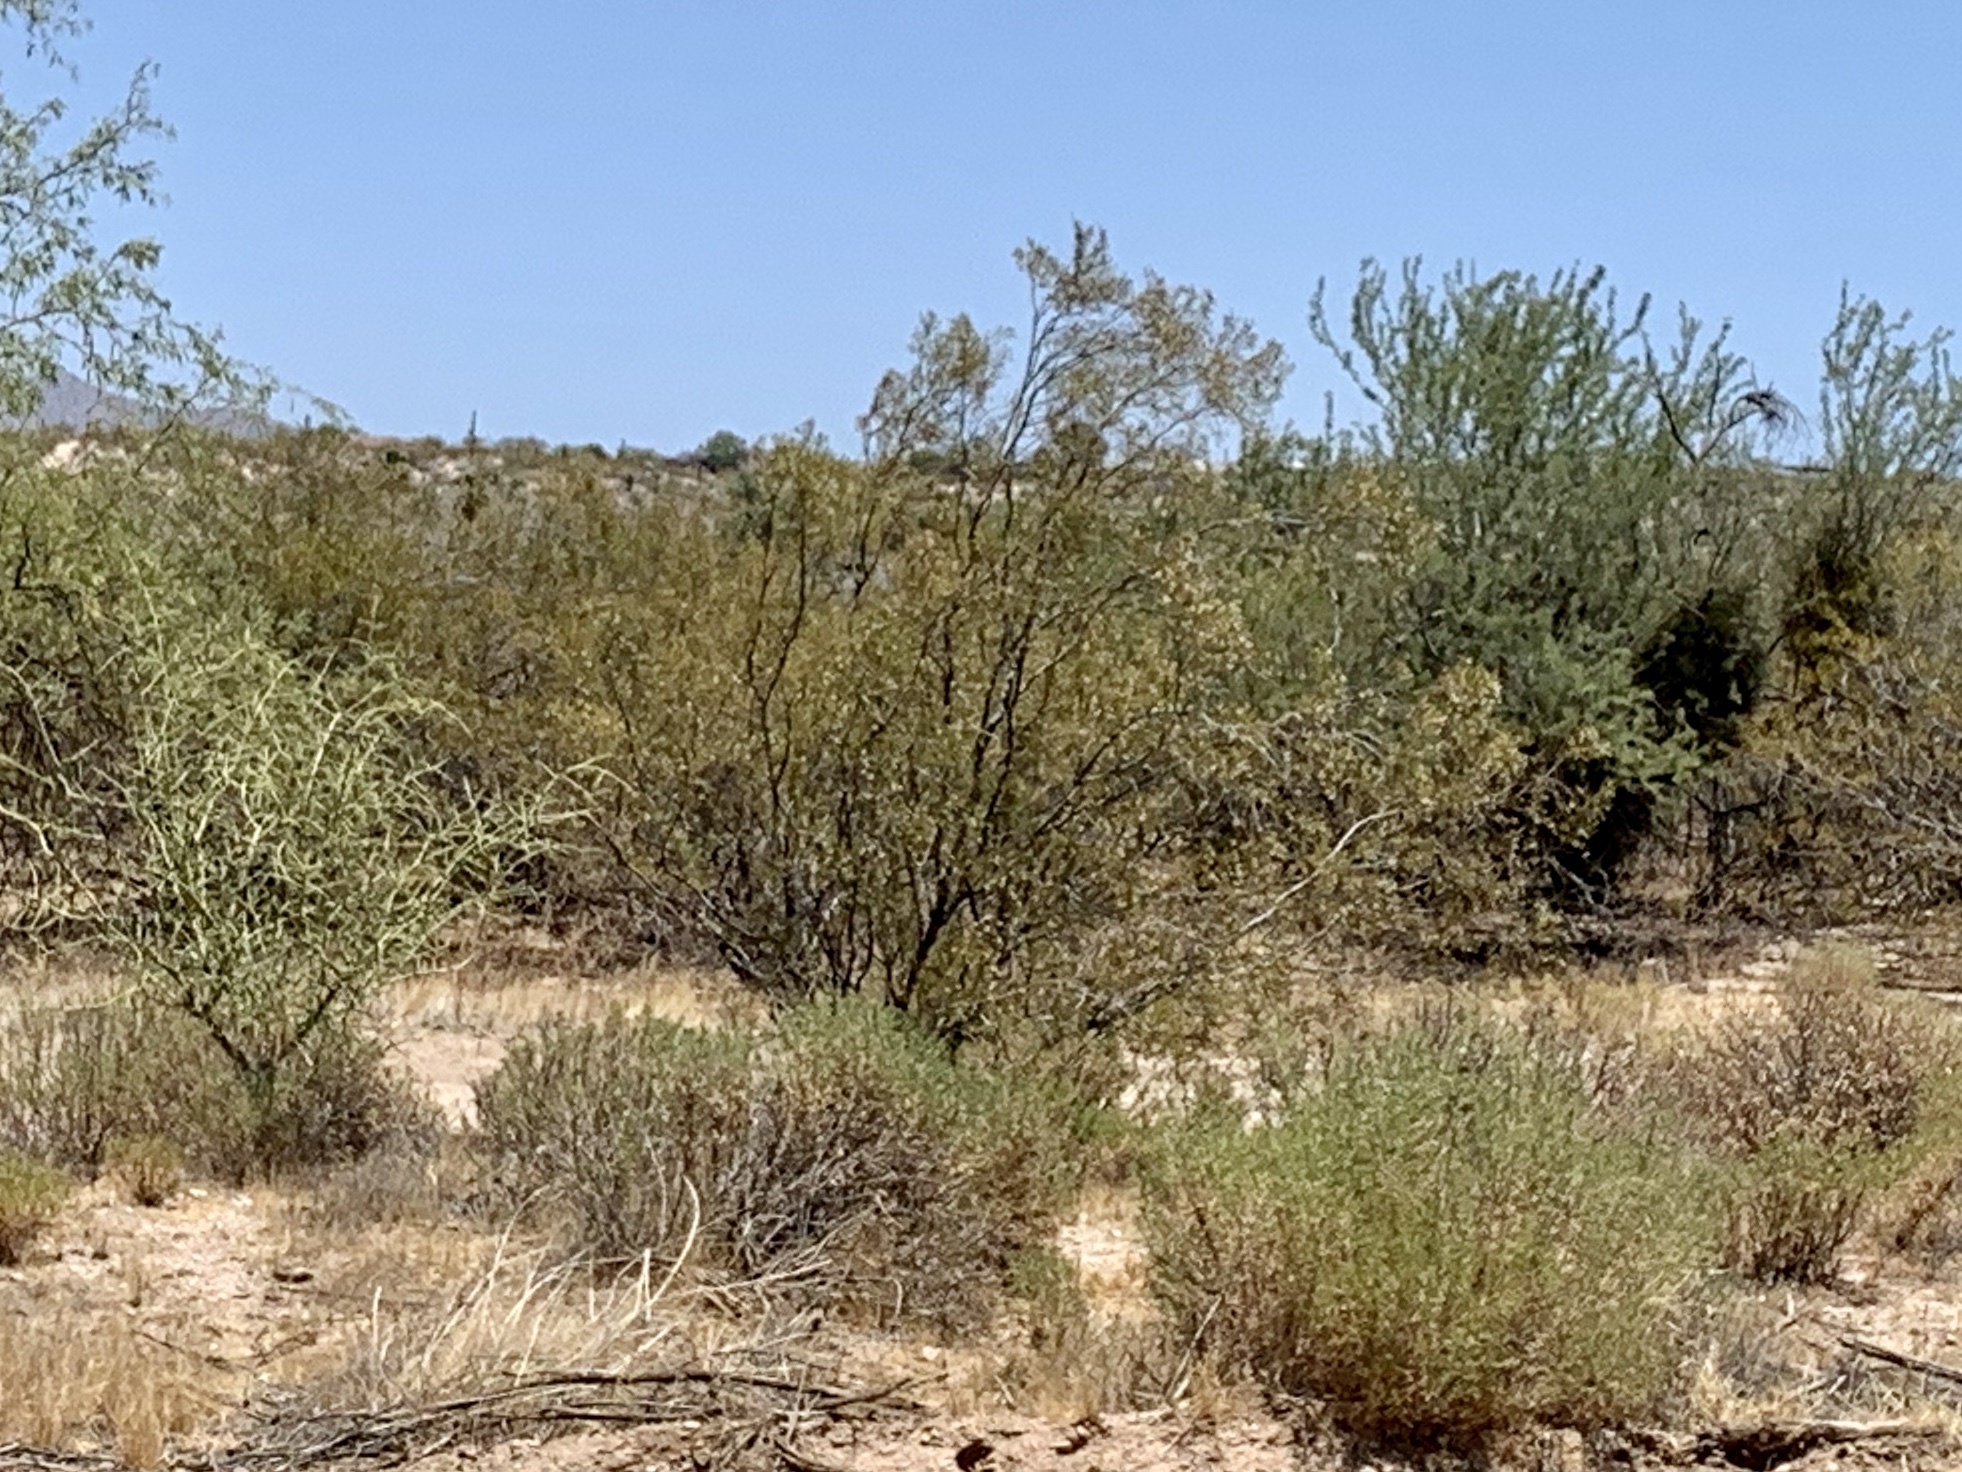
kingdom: Plantae
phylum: Tracheophyta
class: Magnoliopsida
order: Zygophyllales
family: Zygophyllaceae
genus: Larrea
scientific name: Larrea tridentata
